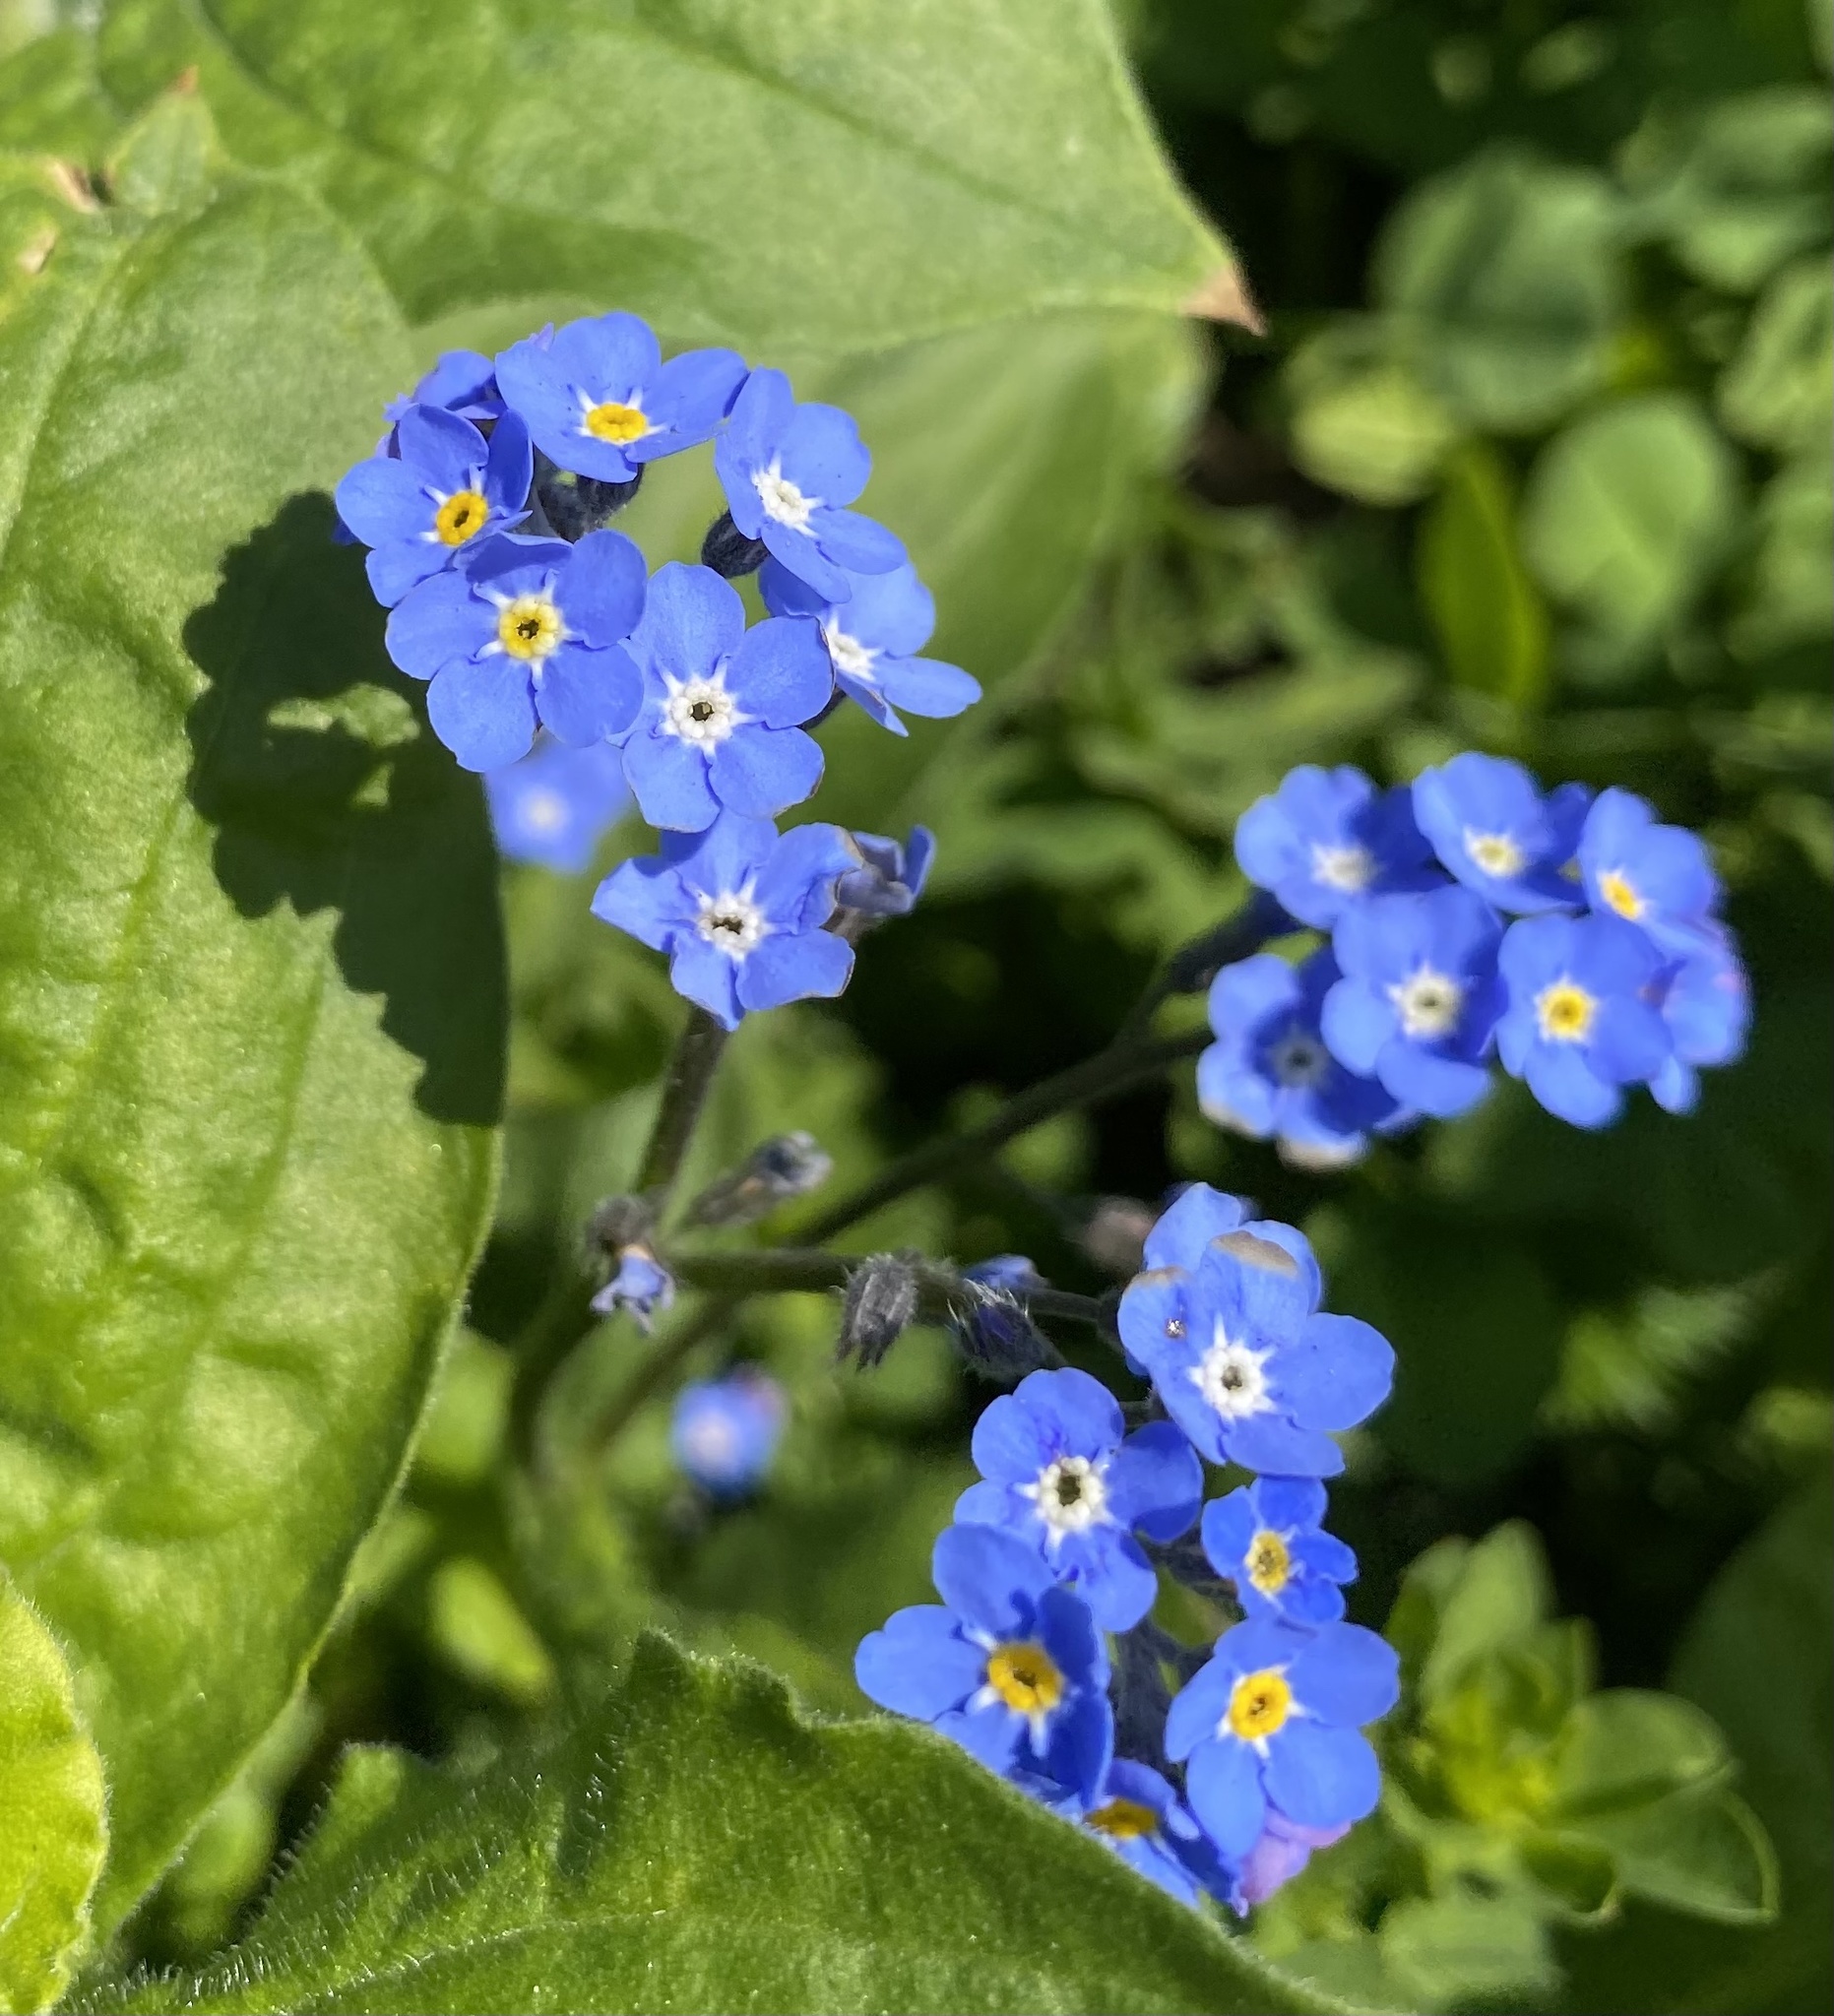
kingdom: Plantae
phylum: Tracheophyta
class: Magnoliopsida
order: Boraginales
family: Boraginaceae
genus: Myosotis
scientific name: Myosotis sylvatica
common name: Wood forget-me-not
